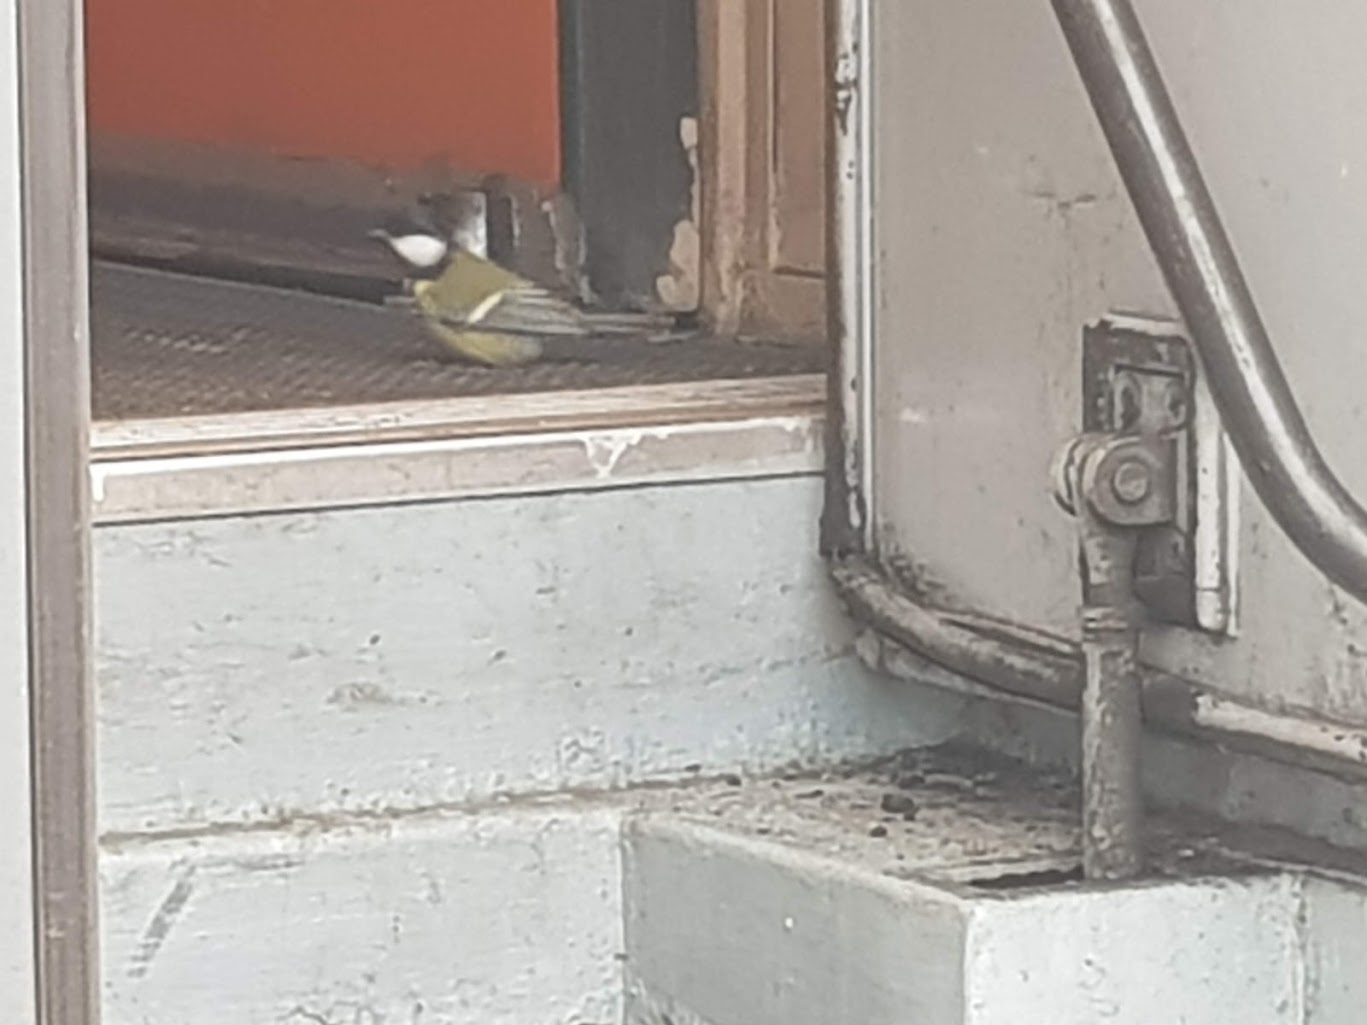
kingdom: Animalia
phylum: Chordata
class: Aves
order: Passeriformes
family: Paridae
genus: Parus
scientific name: Parus major
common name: Great tit
